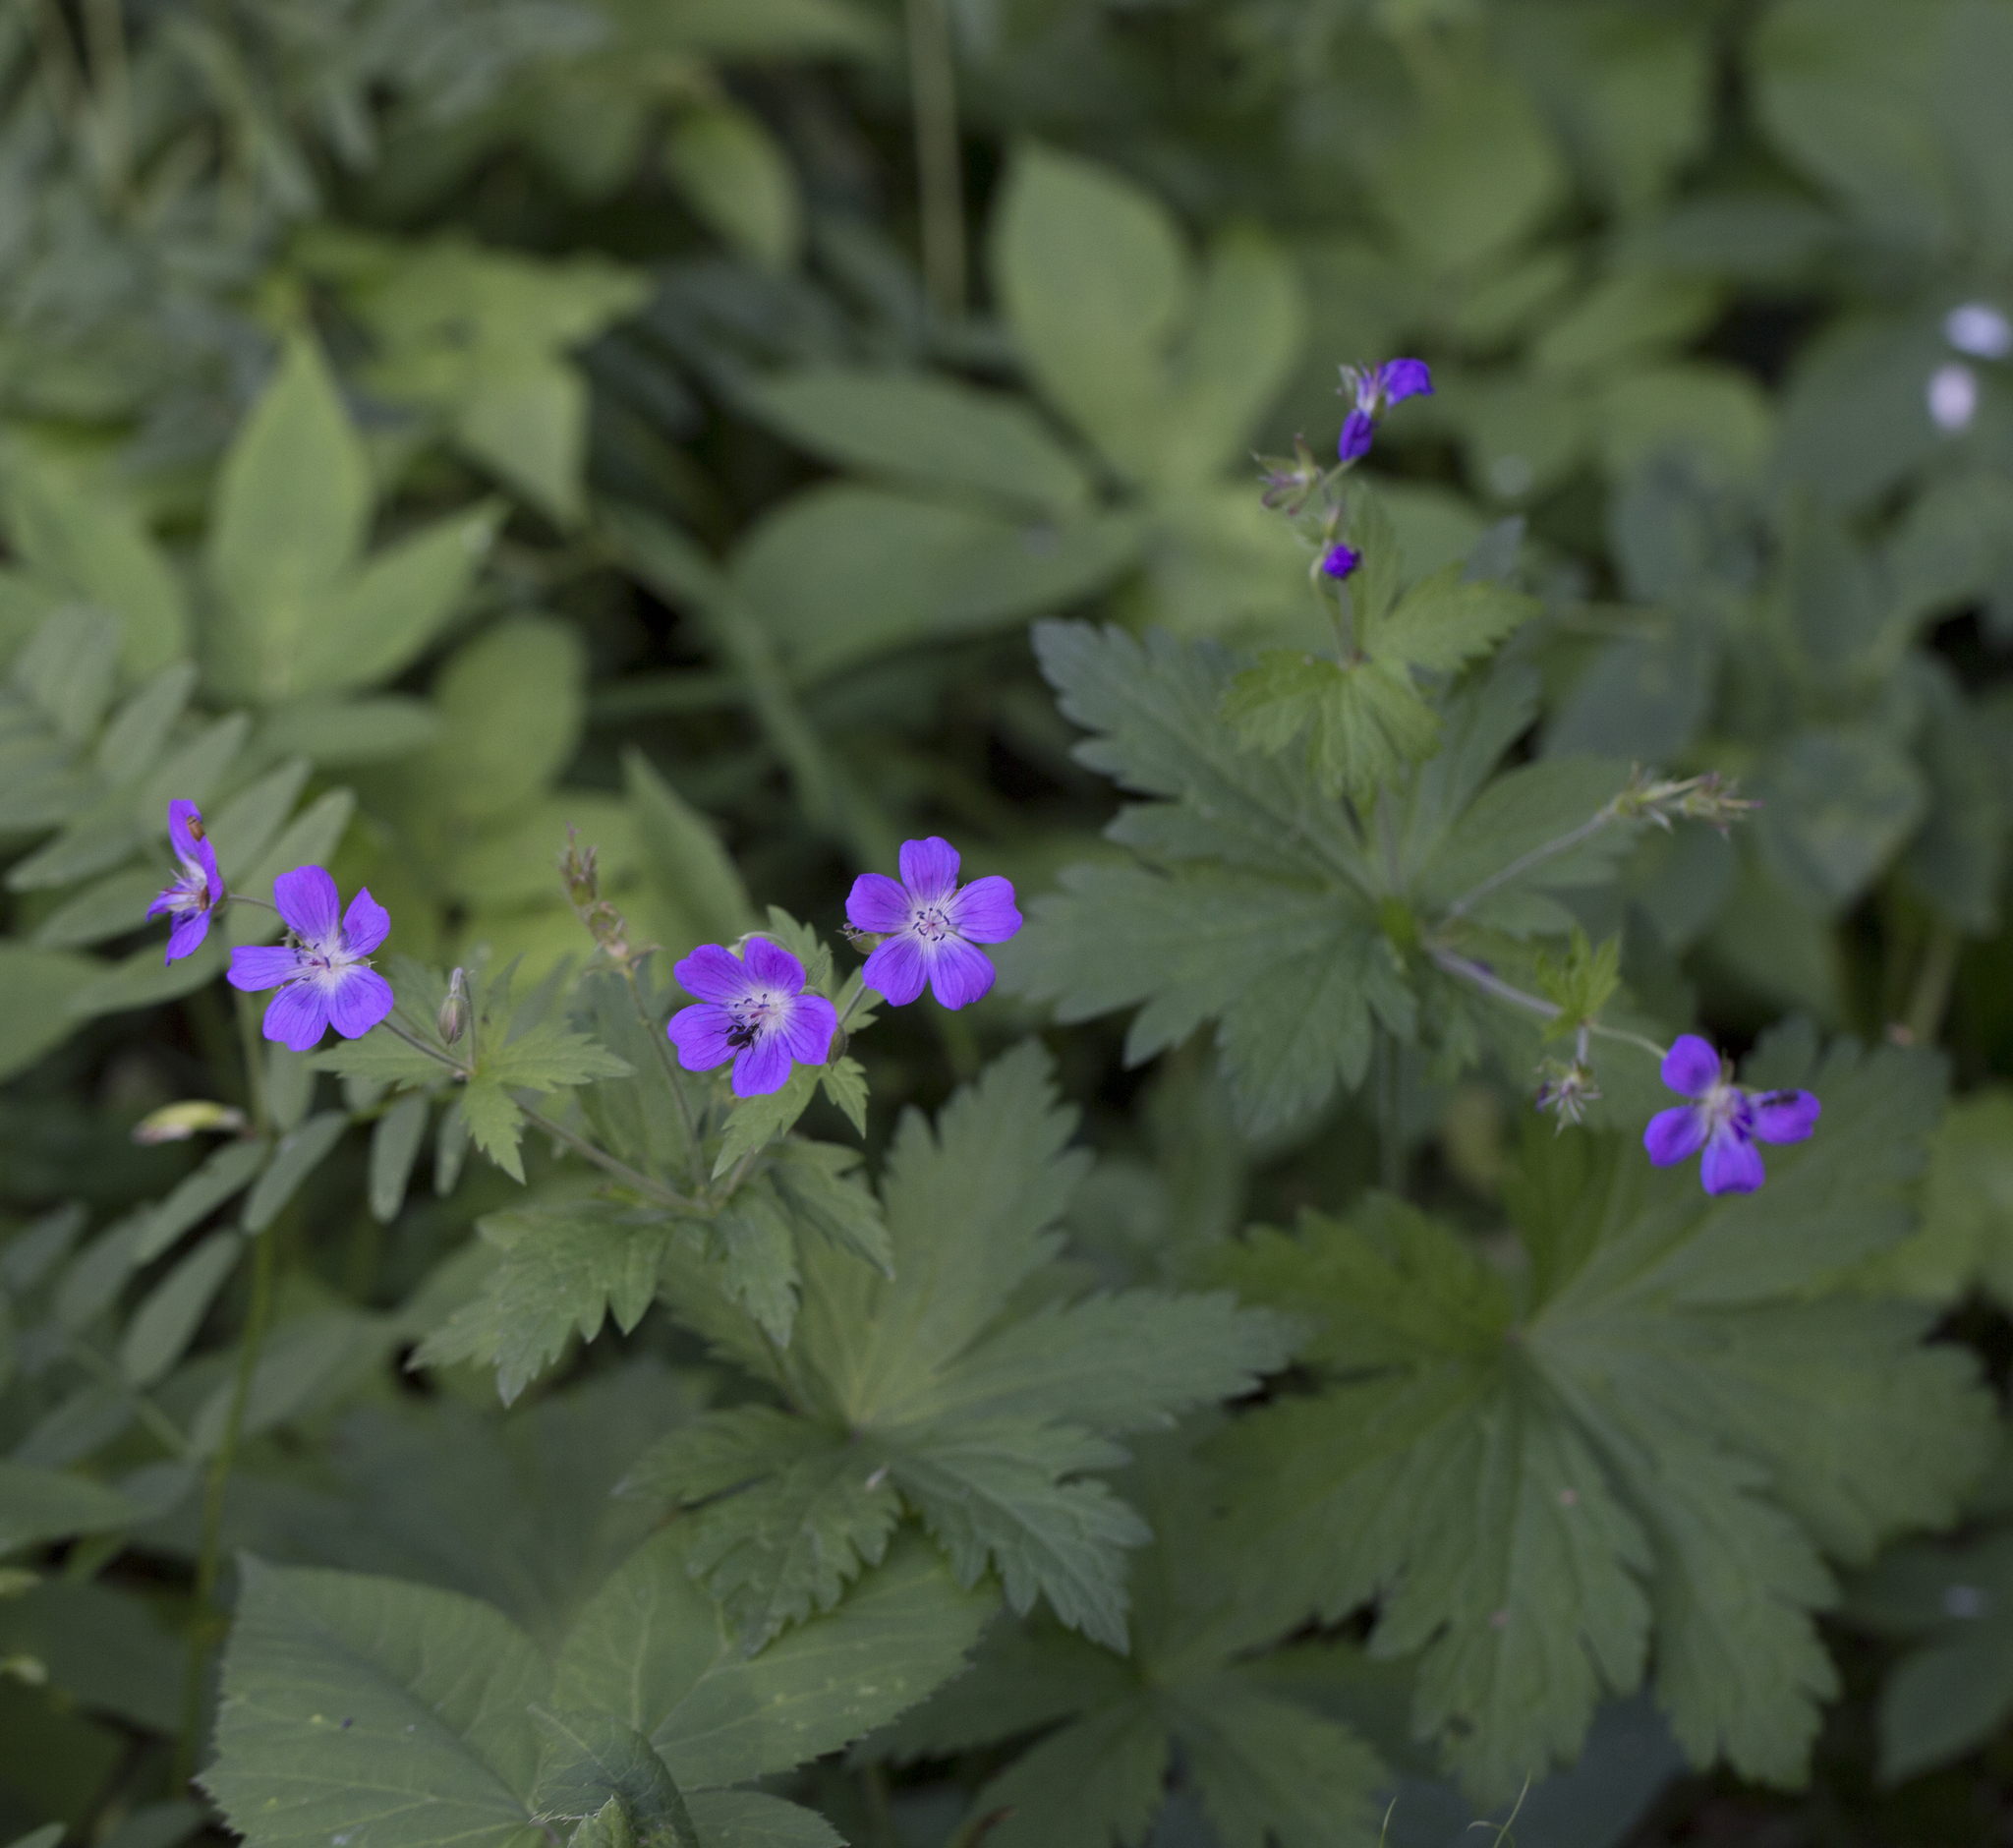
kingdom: Plantae
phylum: Tracheophyta
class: Magnoliopsida
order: Geraniales
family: Geraniaceae
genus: Geranium
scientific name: Geranium sylvaticum
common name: Wood crane's-bill
